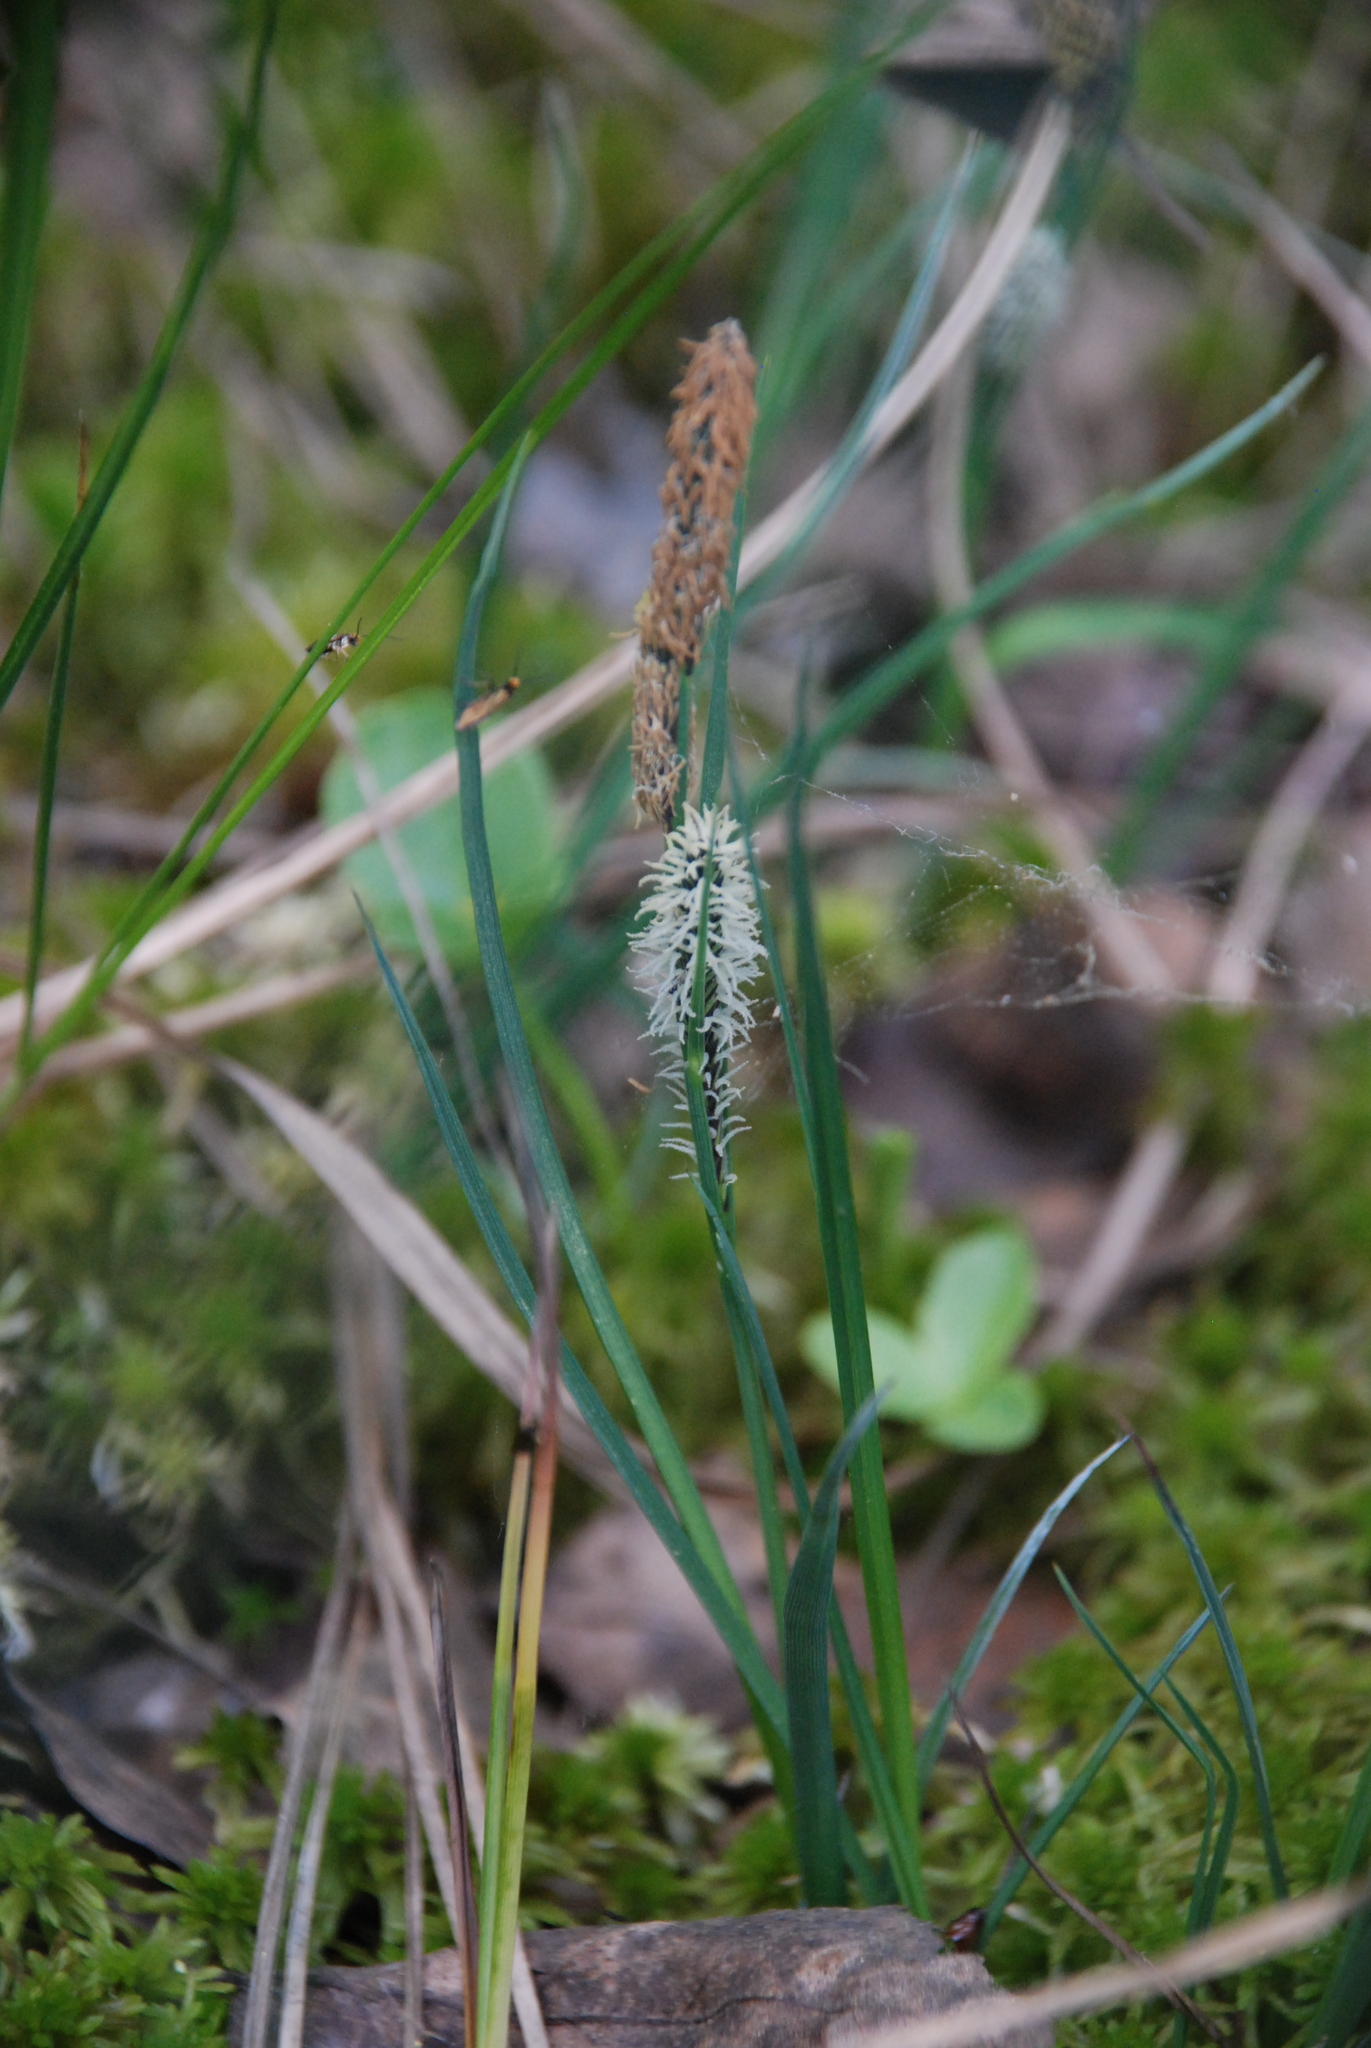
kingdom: Plantae
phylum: Tracheophyta
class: Liliopsida
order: Poales
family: Cyperaceae
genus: Carex
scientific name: Carex nigra
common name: Common sedge
